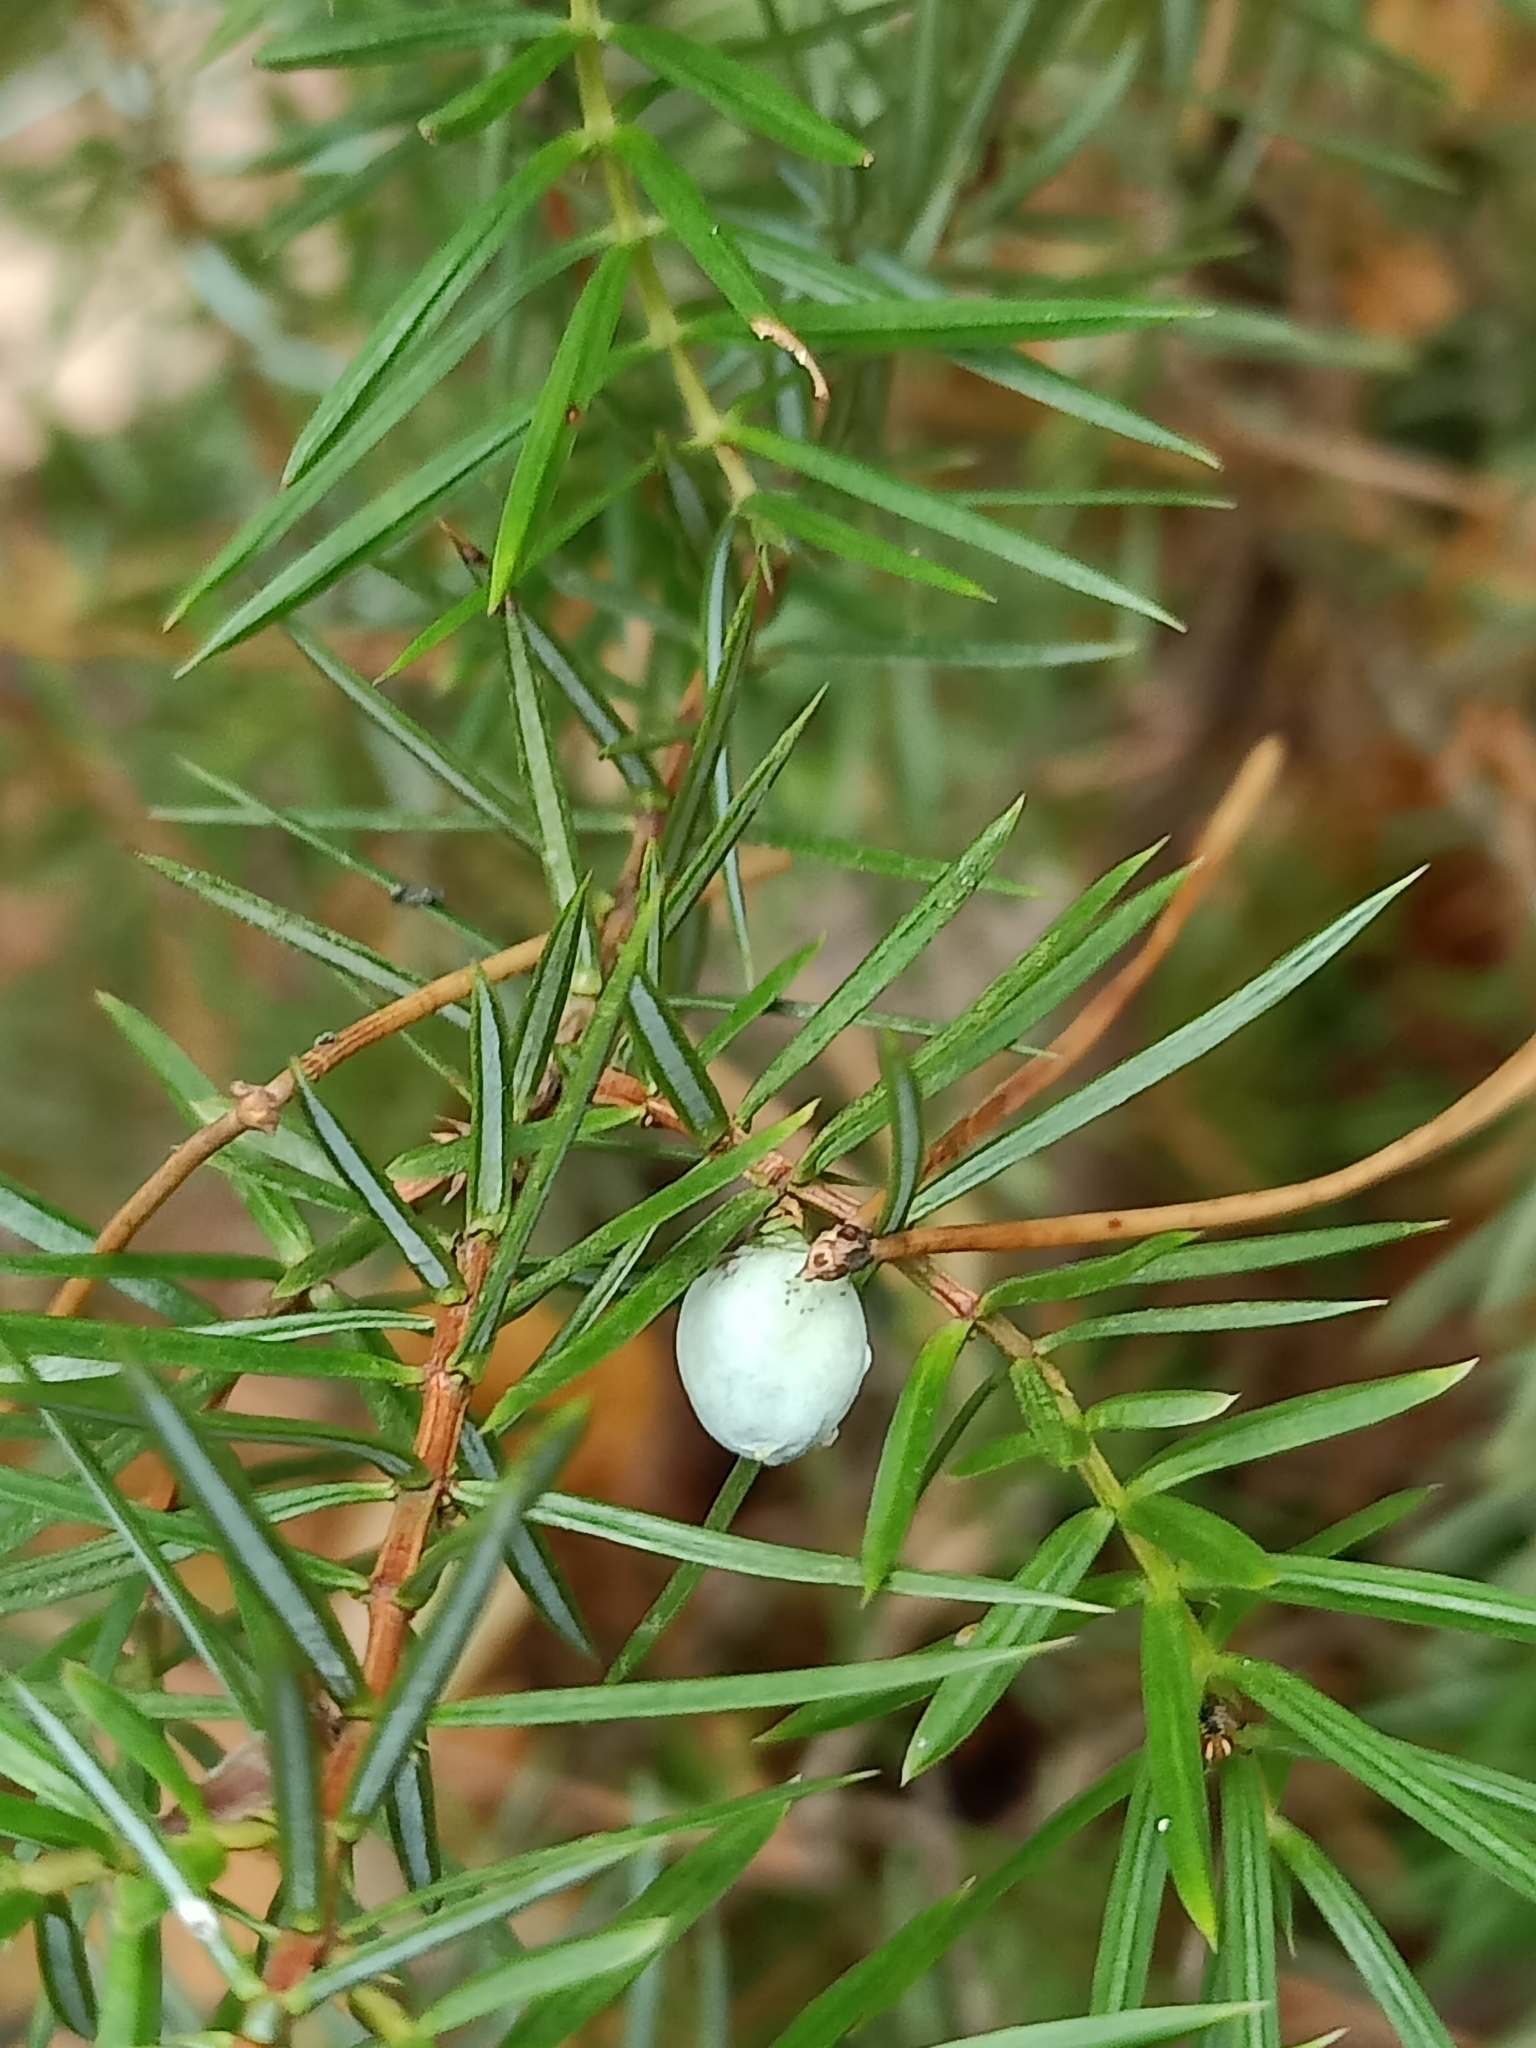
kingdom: Plantae
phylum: Tracheophyta
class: Pinopsida
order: Pinales
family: Cupressaceae
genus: Juniperus
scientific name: Juniperus communis
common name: Common juniper
